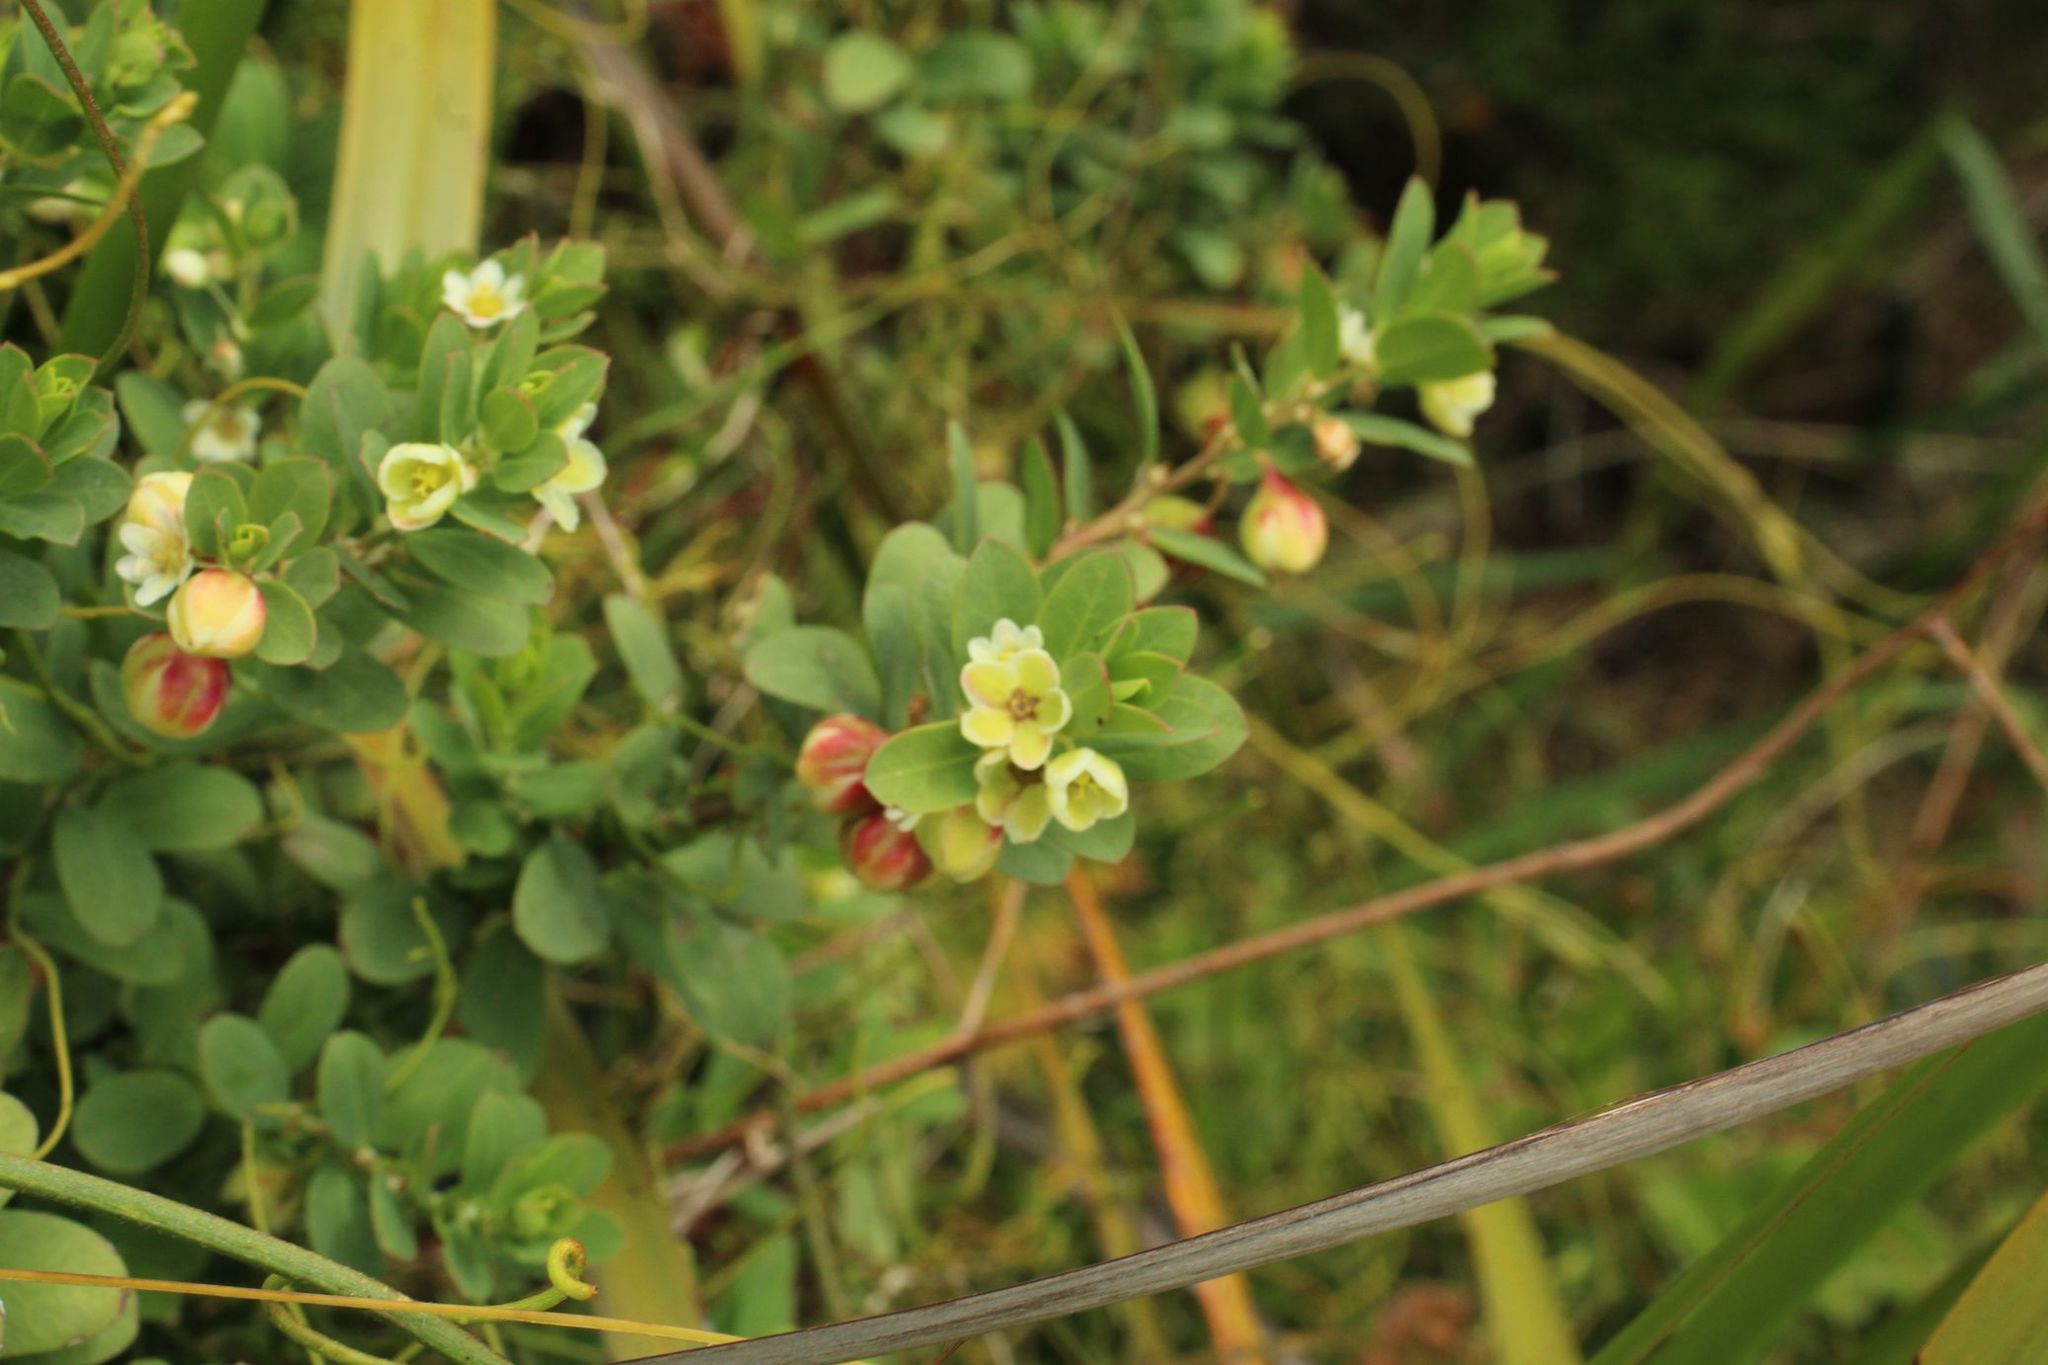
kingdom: Plantae
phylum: Tracheophyta
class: Magnoliopsida
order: Malpighiales
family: Phyllanthaceae
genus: Phyllanthus
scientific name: Phyllanthus calycinus
